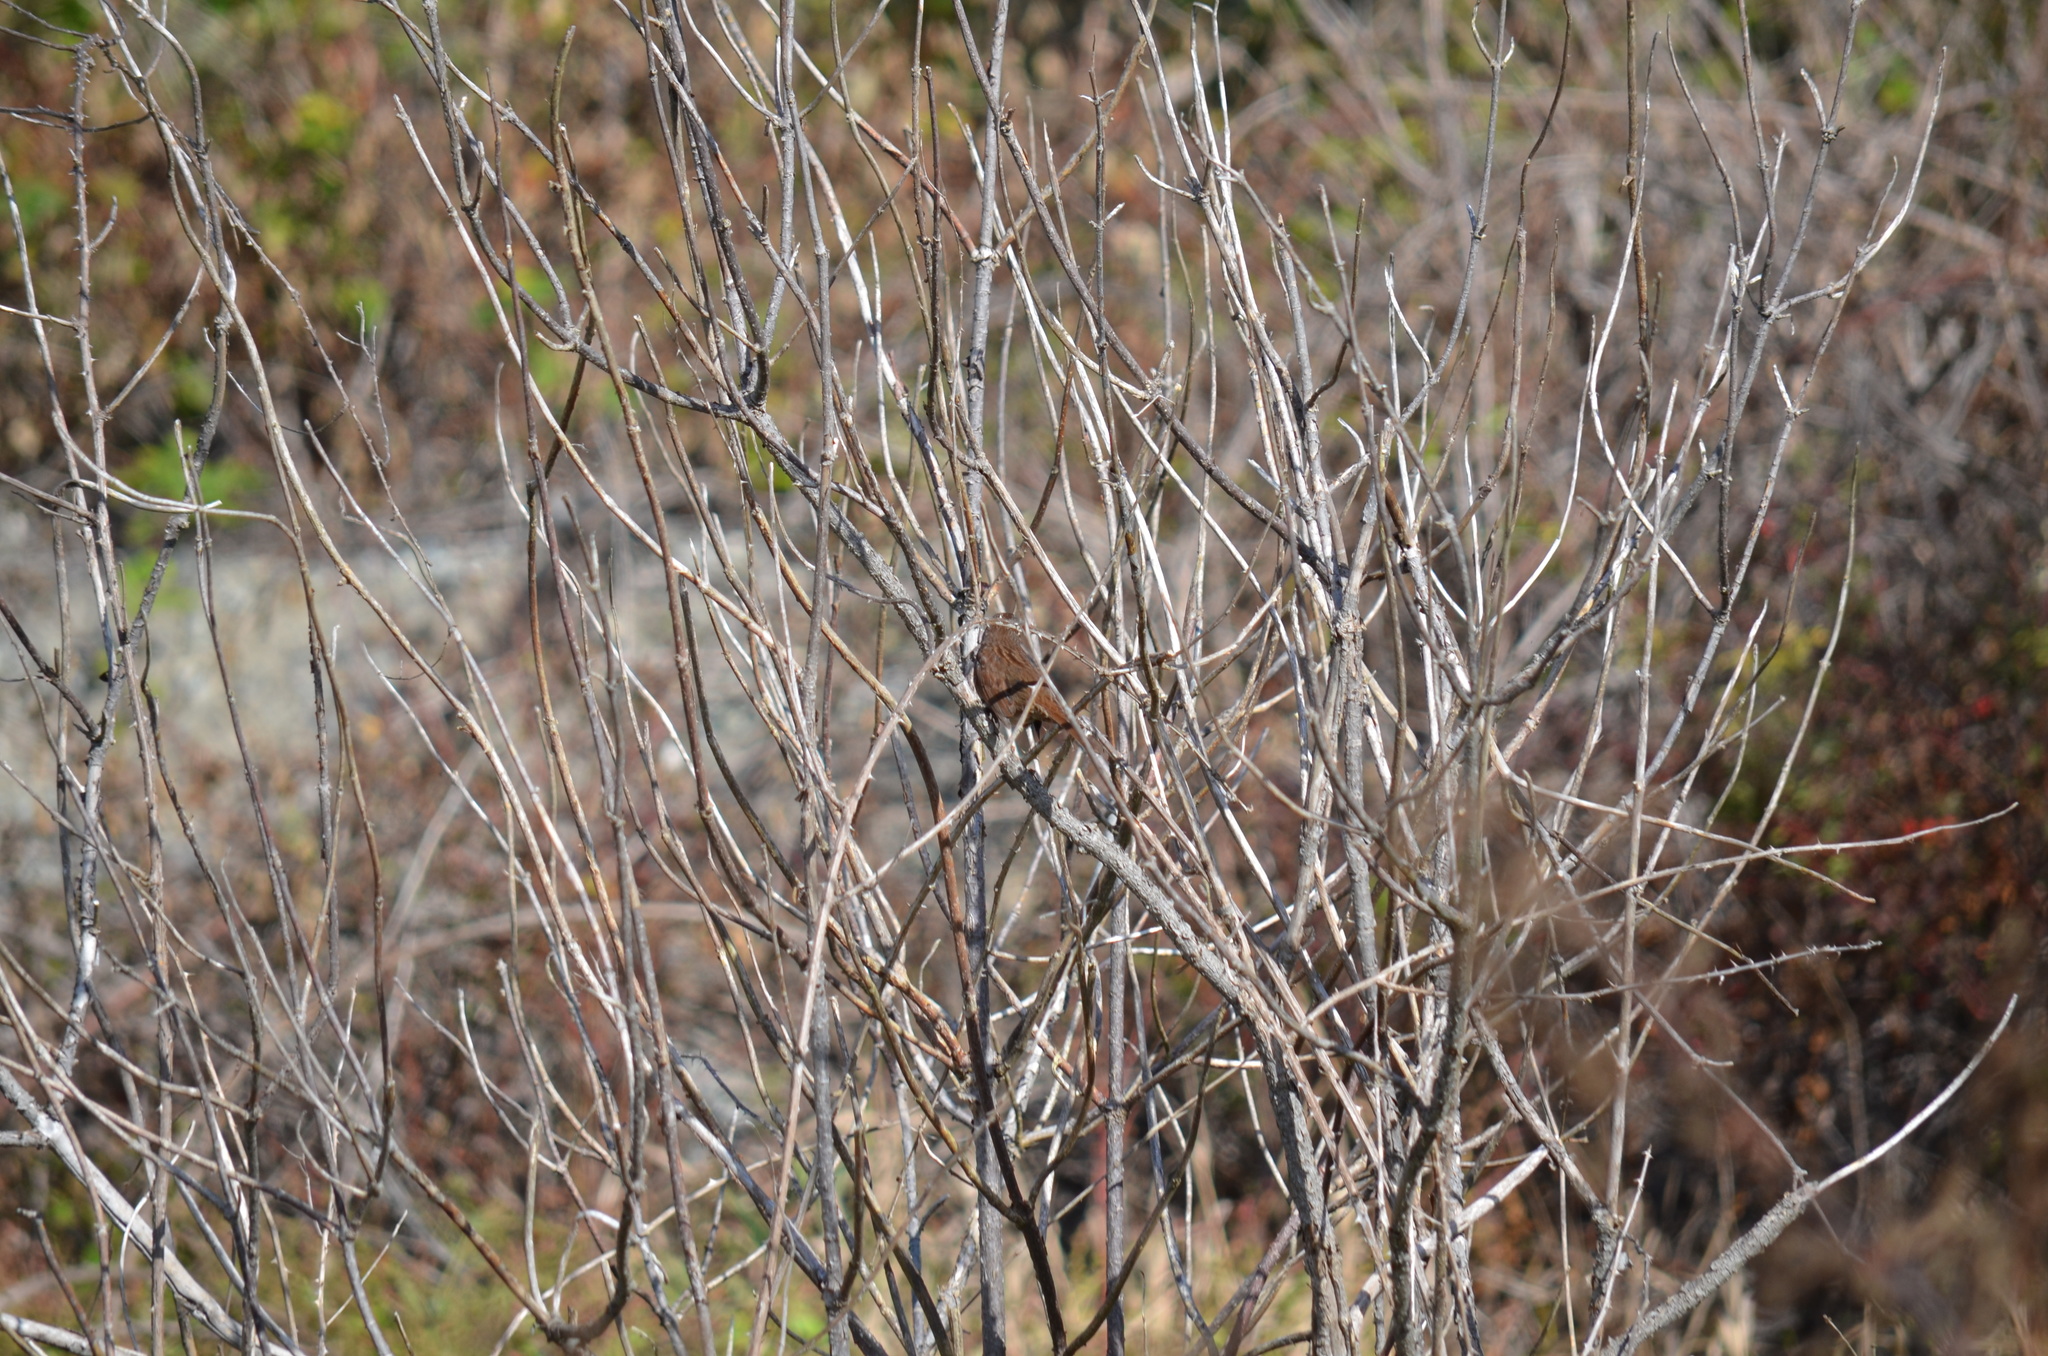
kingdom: Animalia
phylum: Chordata
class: Aves
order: Passeriformes
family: Passerellidae
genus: Melospiza
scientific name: Melospiza melodia
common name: Song sparrow
